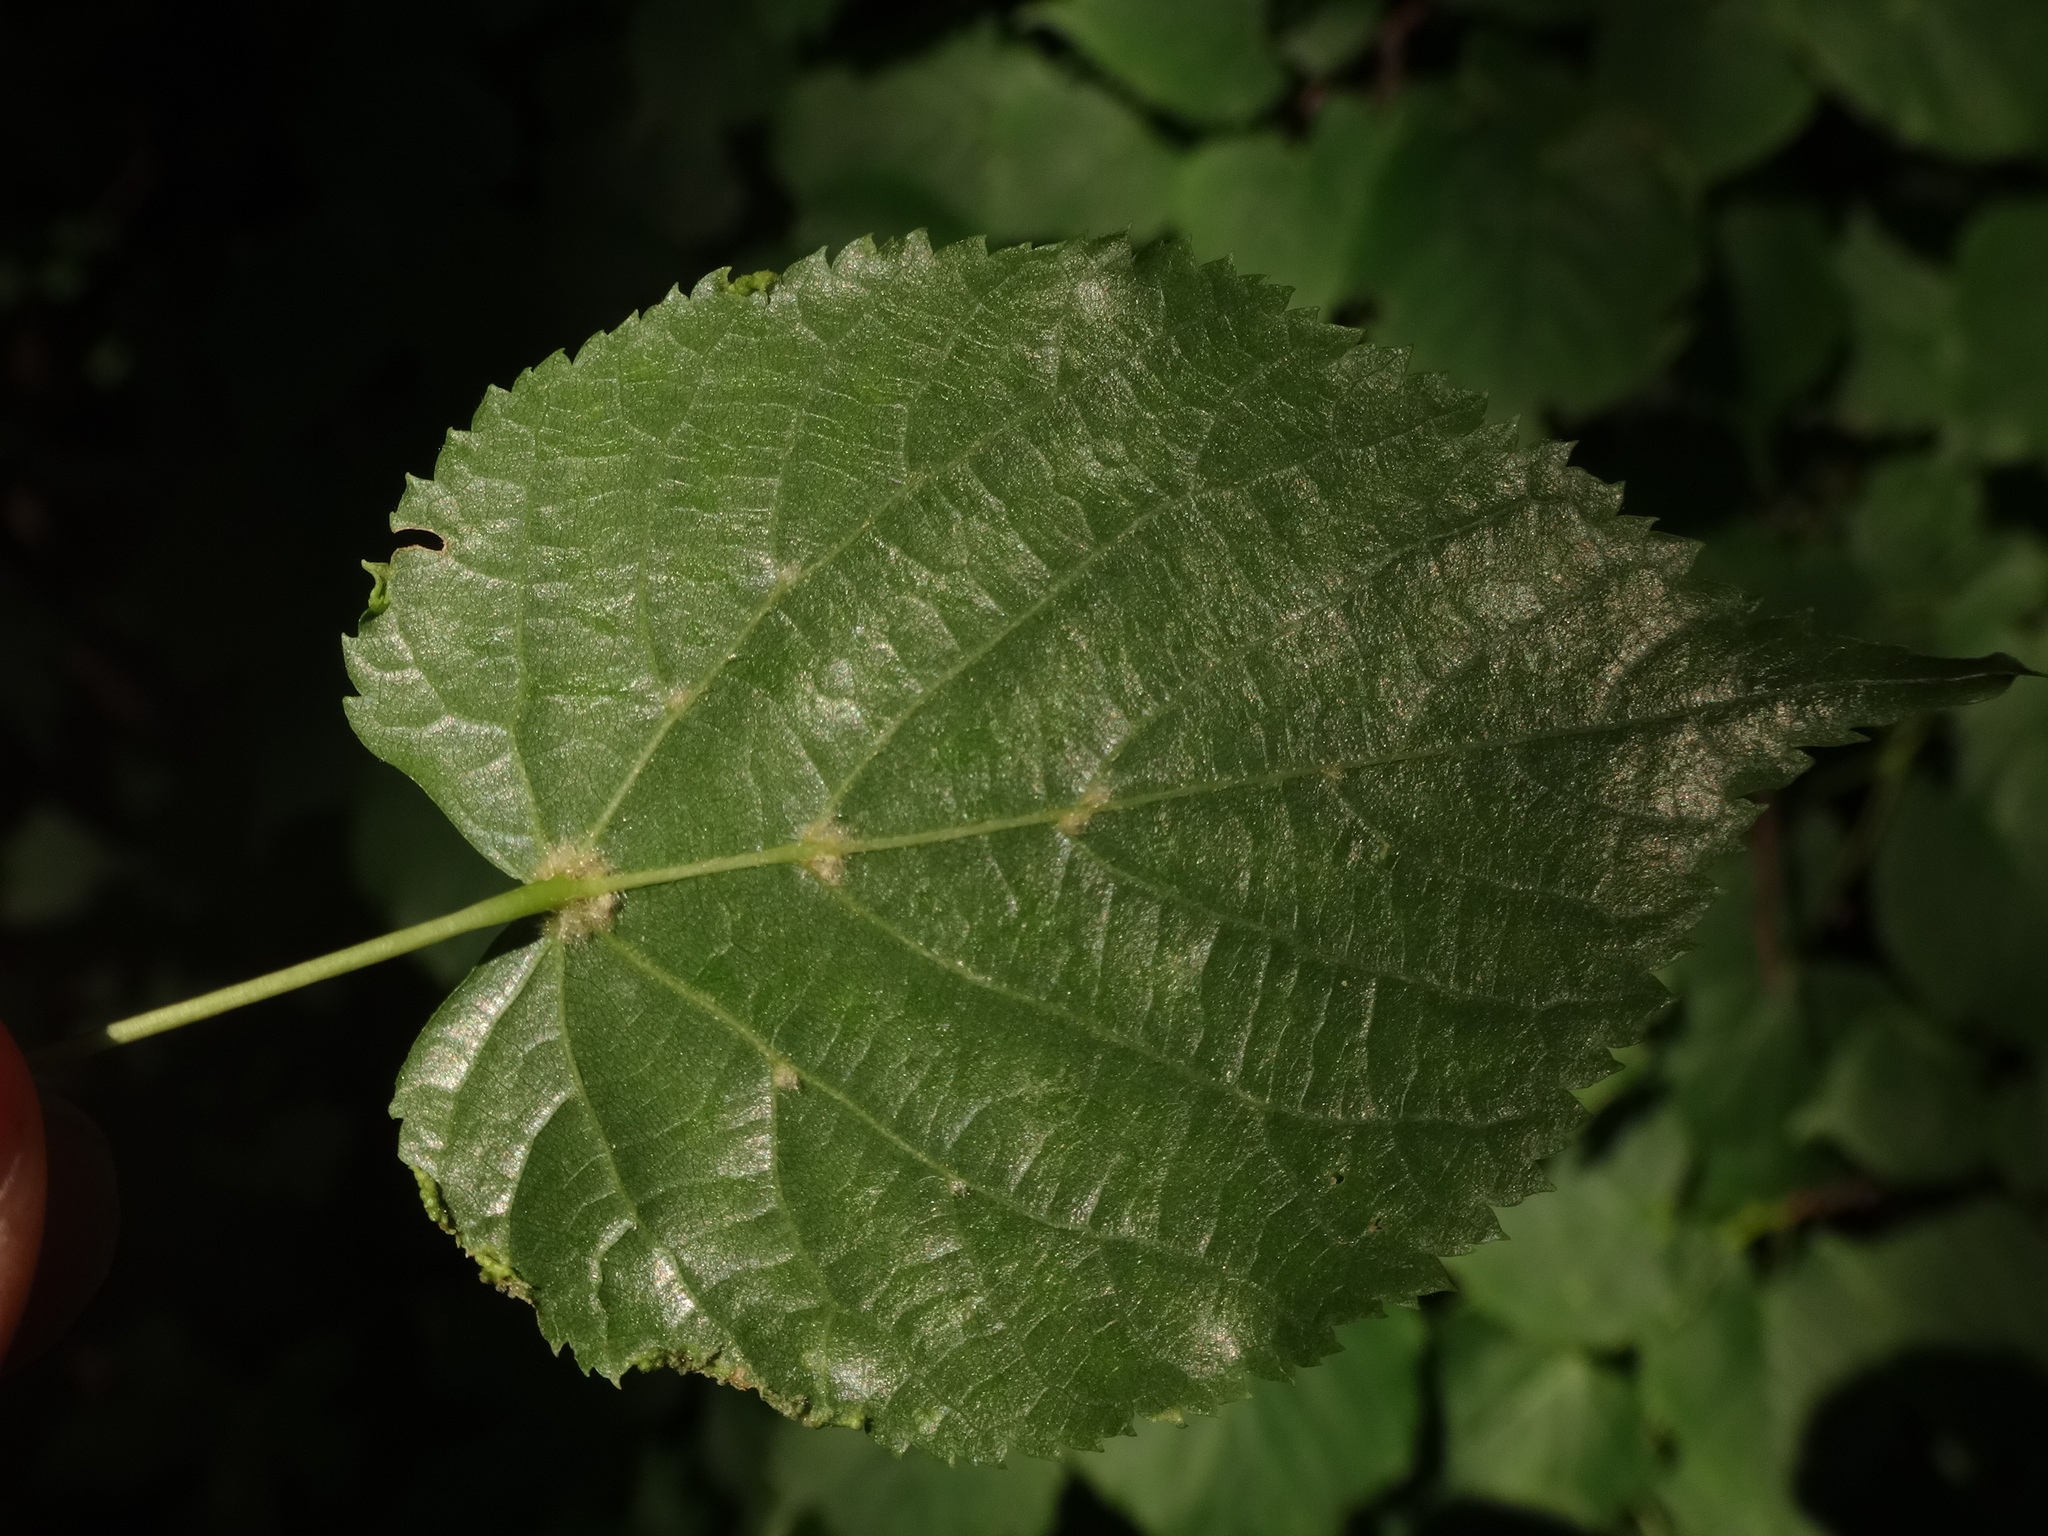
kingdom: Plantae
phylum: Tracheophyta
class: Magnoliopsida
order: Malvales
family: Malvaceae
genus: Tilia
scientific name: Tilia cordata
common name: Small-leaved lime
